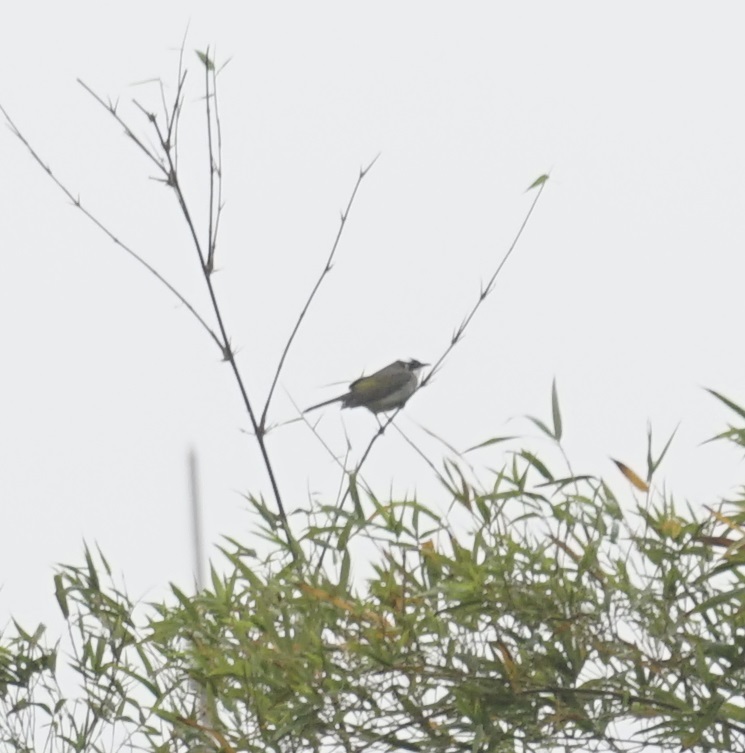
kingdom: Animalia
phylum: Chordata
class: Aves
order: Passeriformes
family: Pycnonotidae
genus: Pycnonotus
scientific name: Pycnonotus sinensis
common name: Light-vented bulbul
